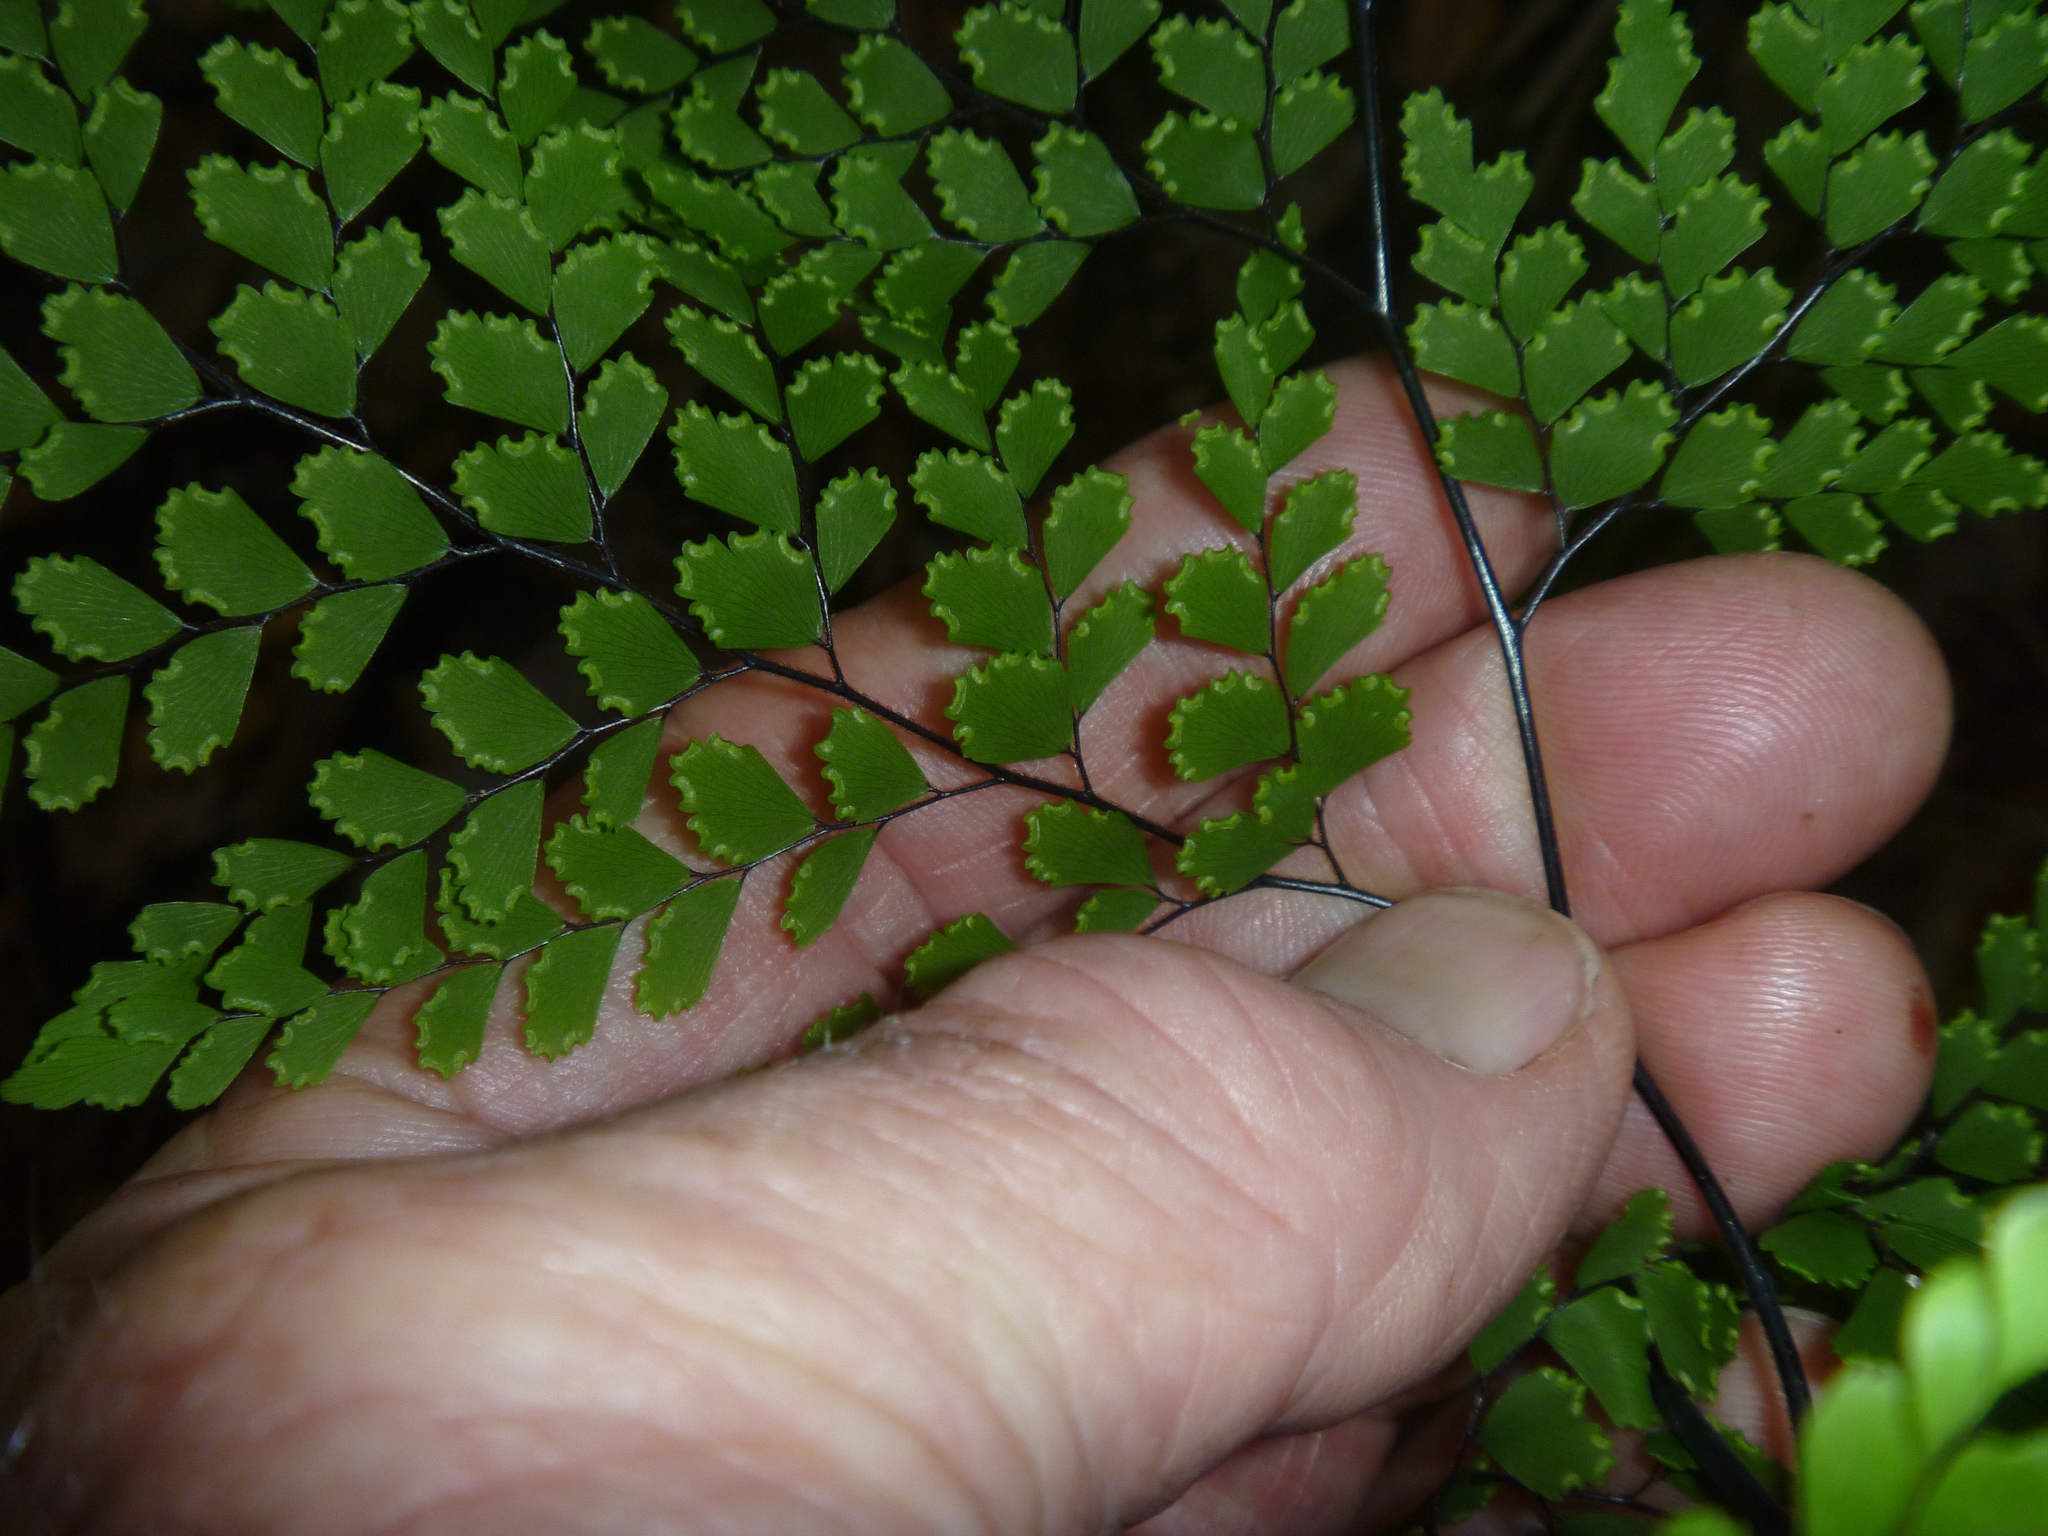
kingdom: Plantae
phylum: Tracheophyta
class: Polypodiopsida
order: Polypodiales
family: Pteridaceae
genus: Adiantum
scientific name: Adiantum formosum
